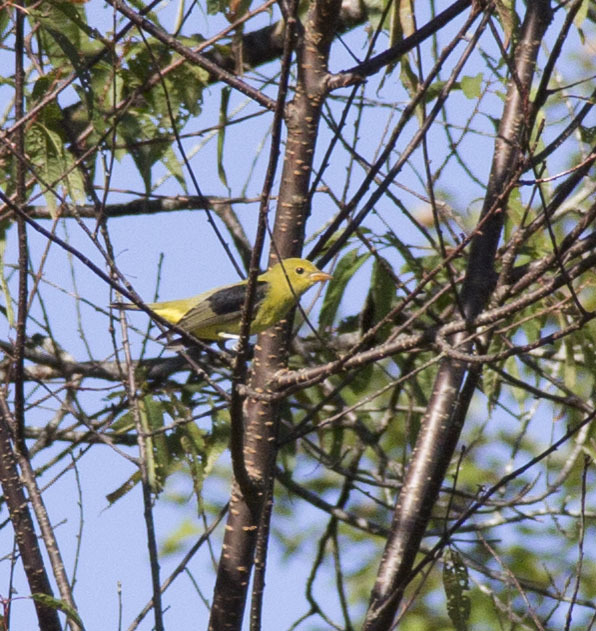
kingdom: Animalia
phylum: Chordata
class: Aves
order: Passeriformes
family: Cardinalidae
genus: Piranga
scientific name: Piranga olivacea
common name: Scarlet tanager
